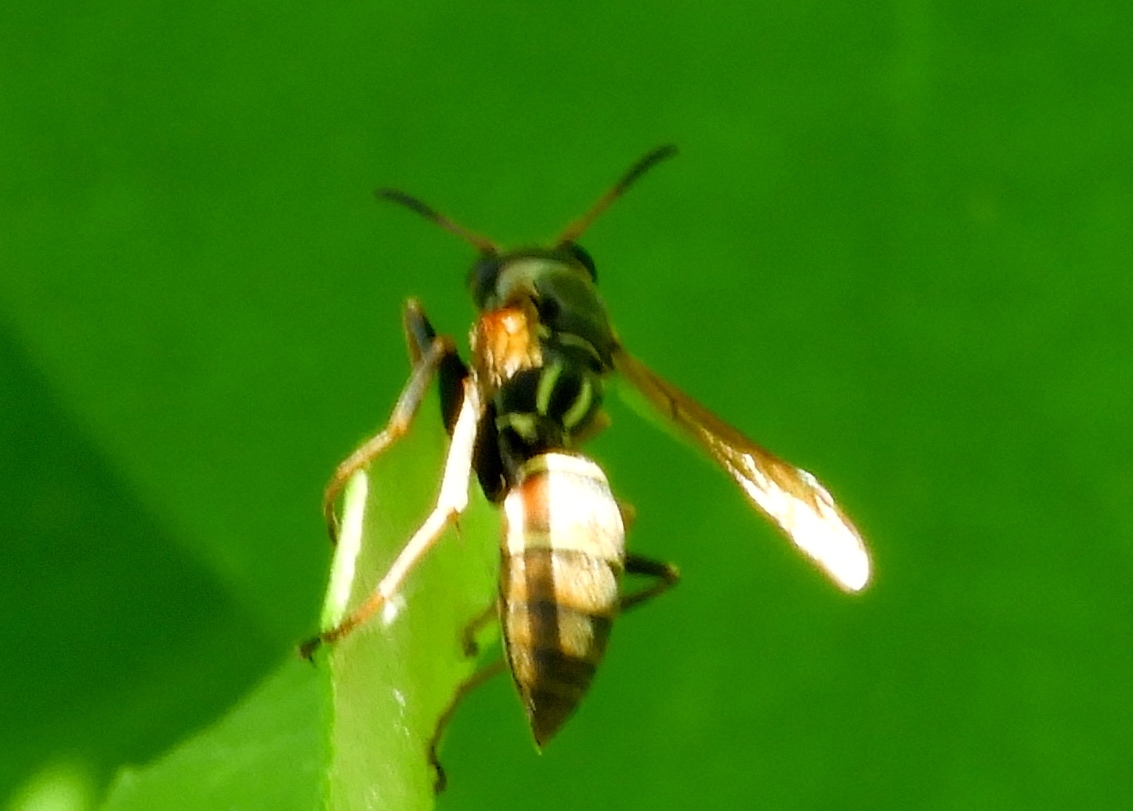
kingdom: Animalia
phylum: Arthropoda
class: Insecta
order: Hymenoptera
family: Eumenidae
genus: Polistes
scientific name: Polistes pacificus
